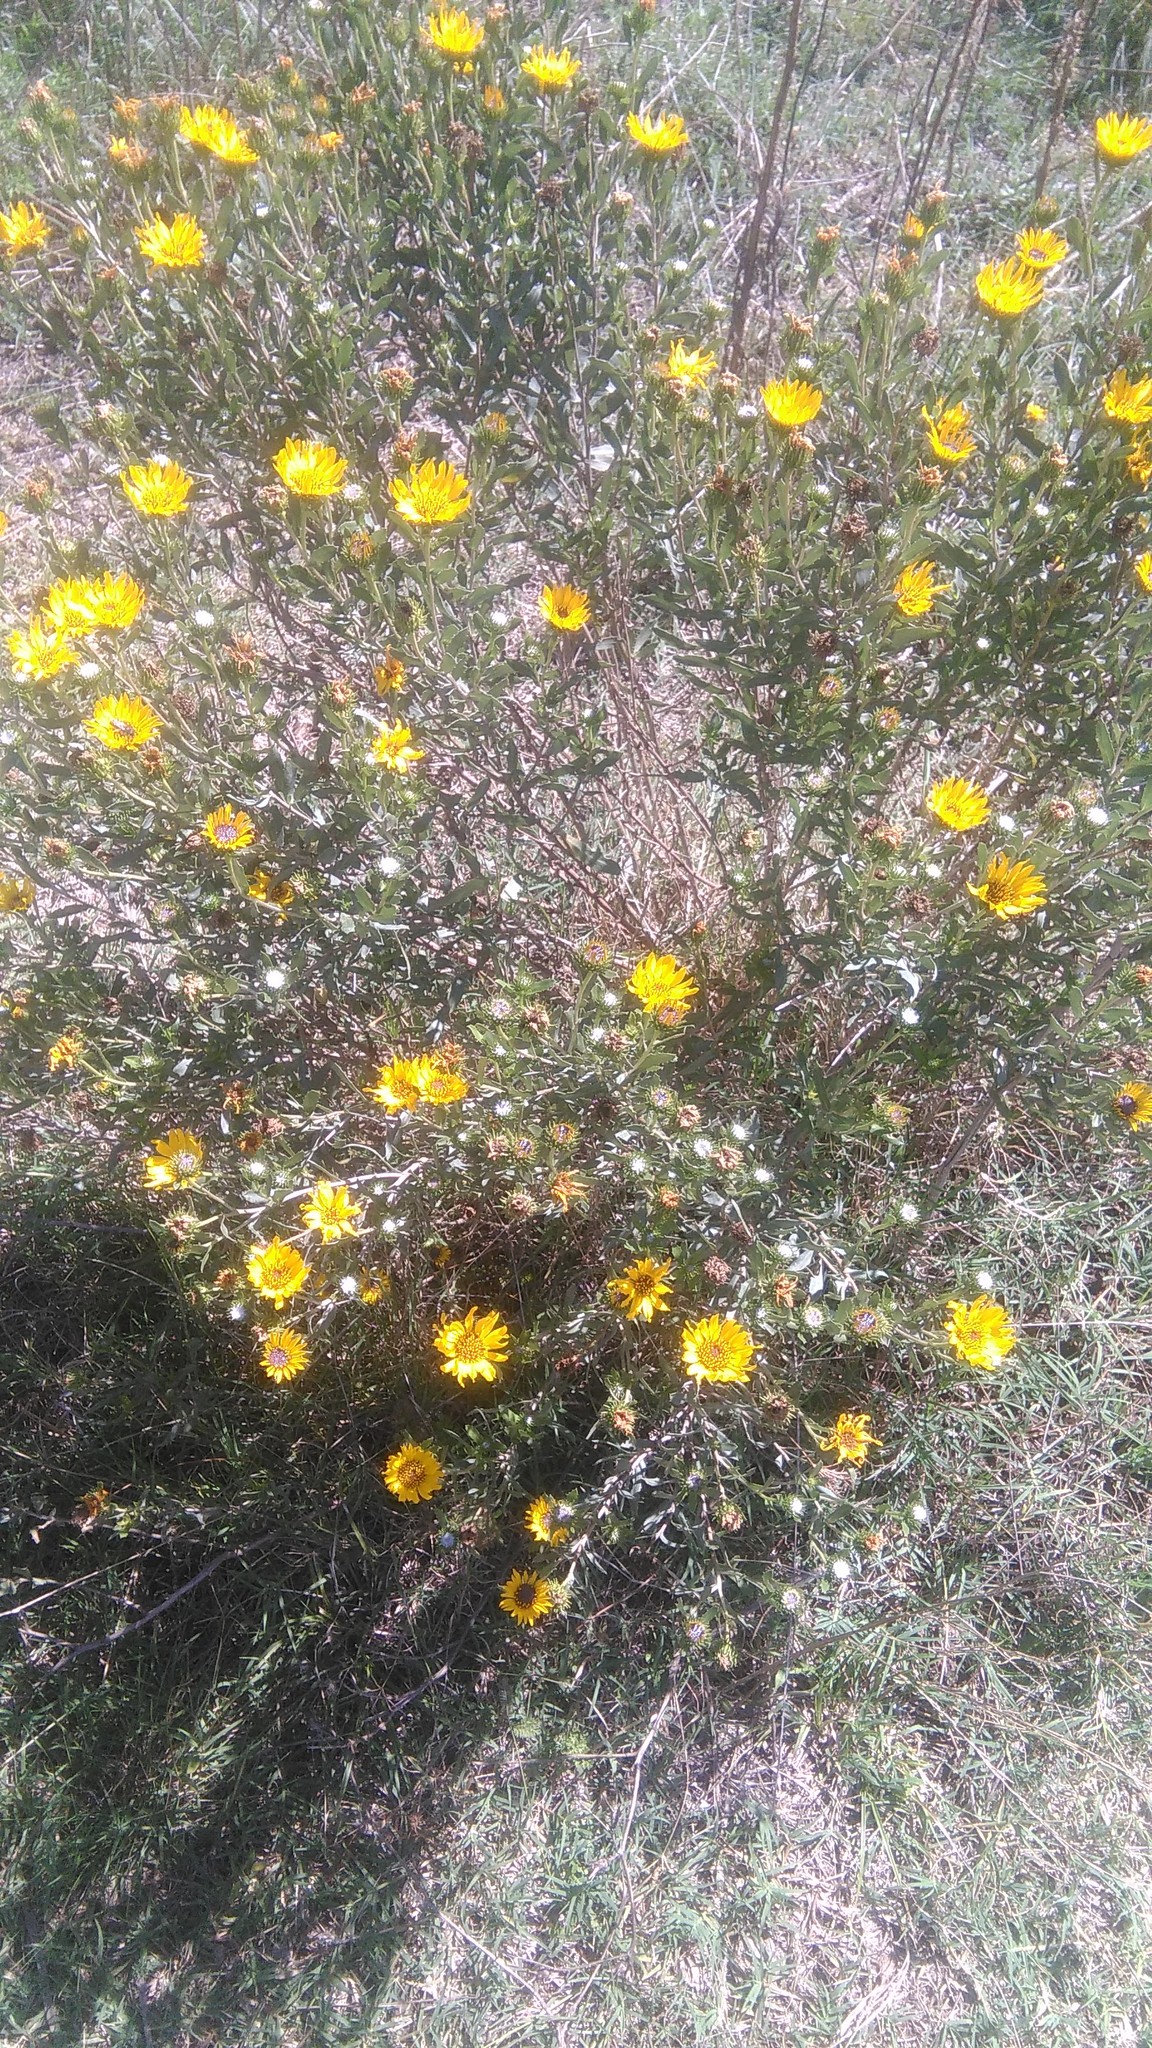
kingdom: Plantae
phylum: Tracheophyta
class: Magnoliopsida
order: Asterales
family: Asteraceae
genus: Grindelia
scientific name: Grindelia pulchella
